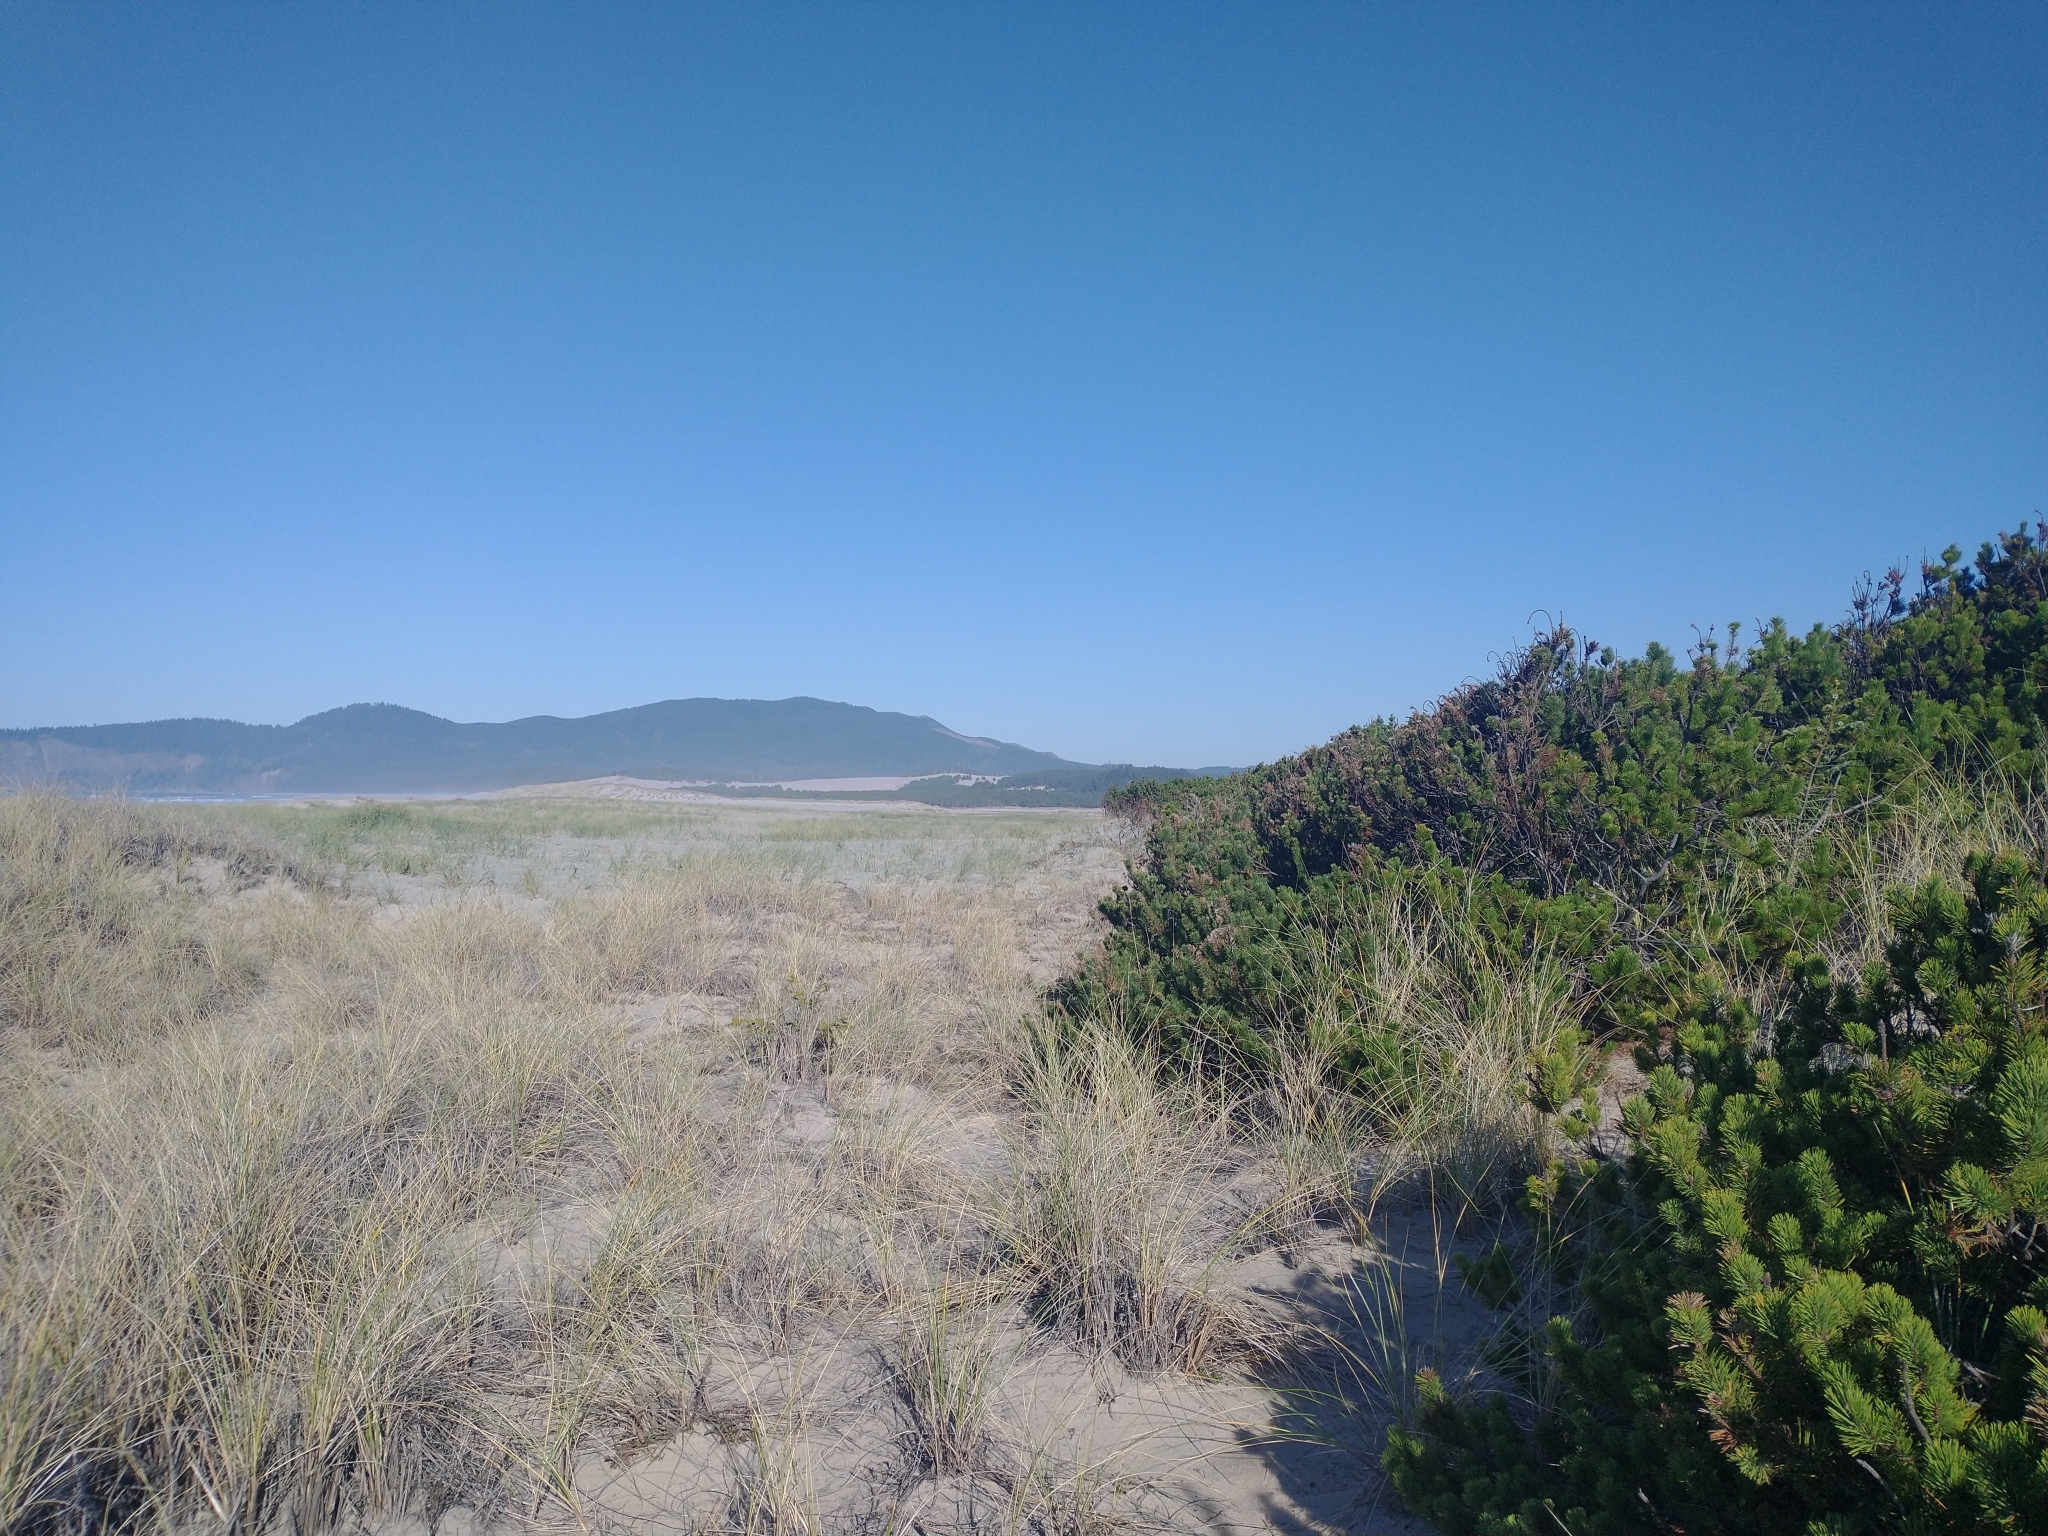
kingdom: Plantae
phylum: Tracheophyta
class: Liliopsida
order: Poales
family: Poaceae
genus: Calamagrostis
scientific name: Calamagrostis arenaria
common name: European beachgrass
